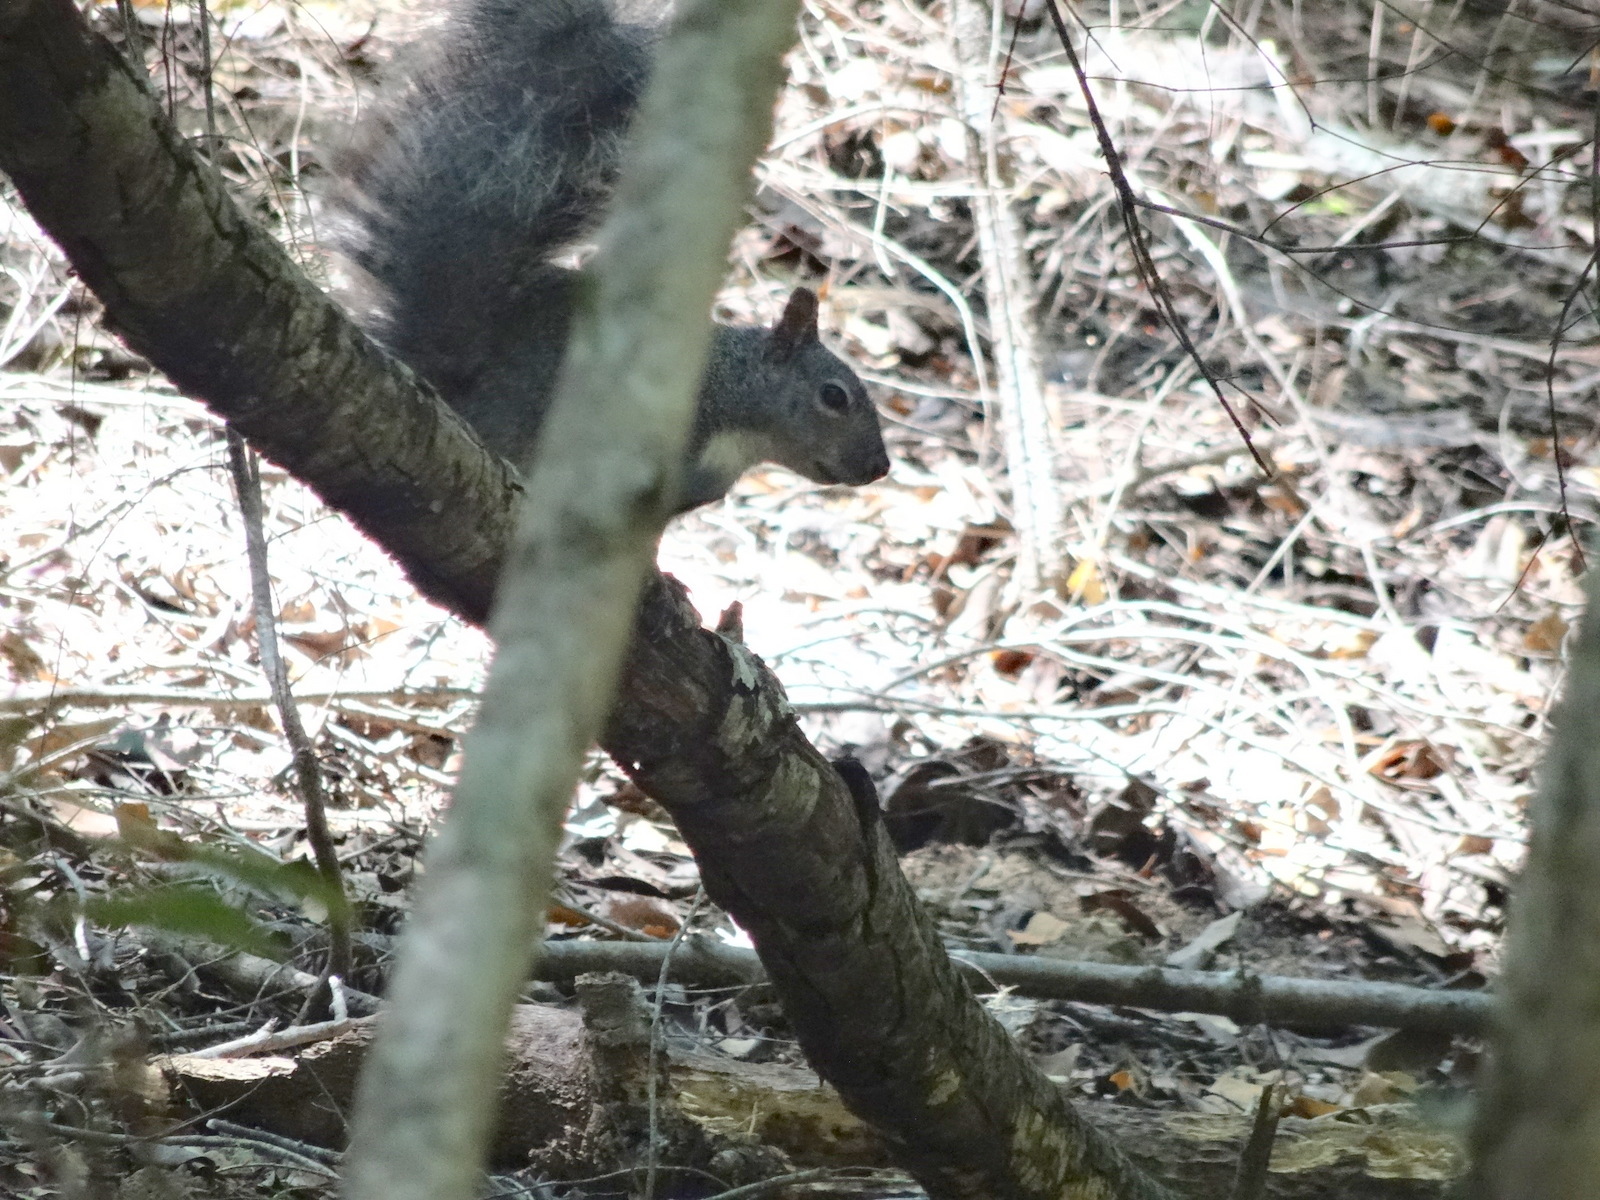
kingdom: Animalia
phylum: Chordata
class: Mammalia
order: Rodentia
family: Sciuridae
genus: Sciurus
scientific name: Sciurus griseus
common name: Western gray squirrel
